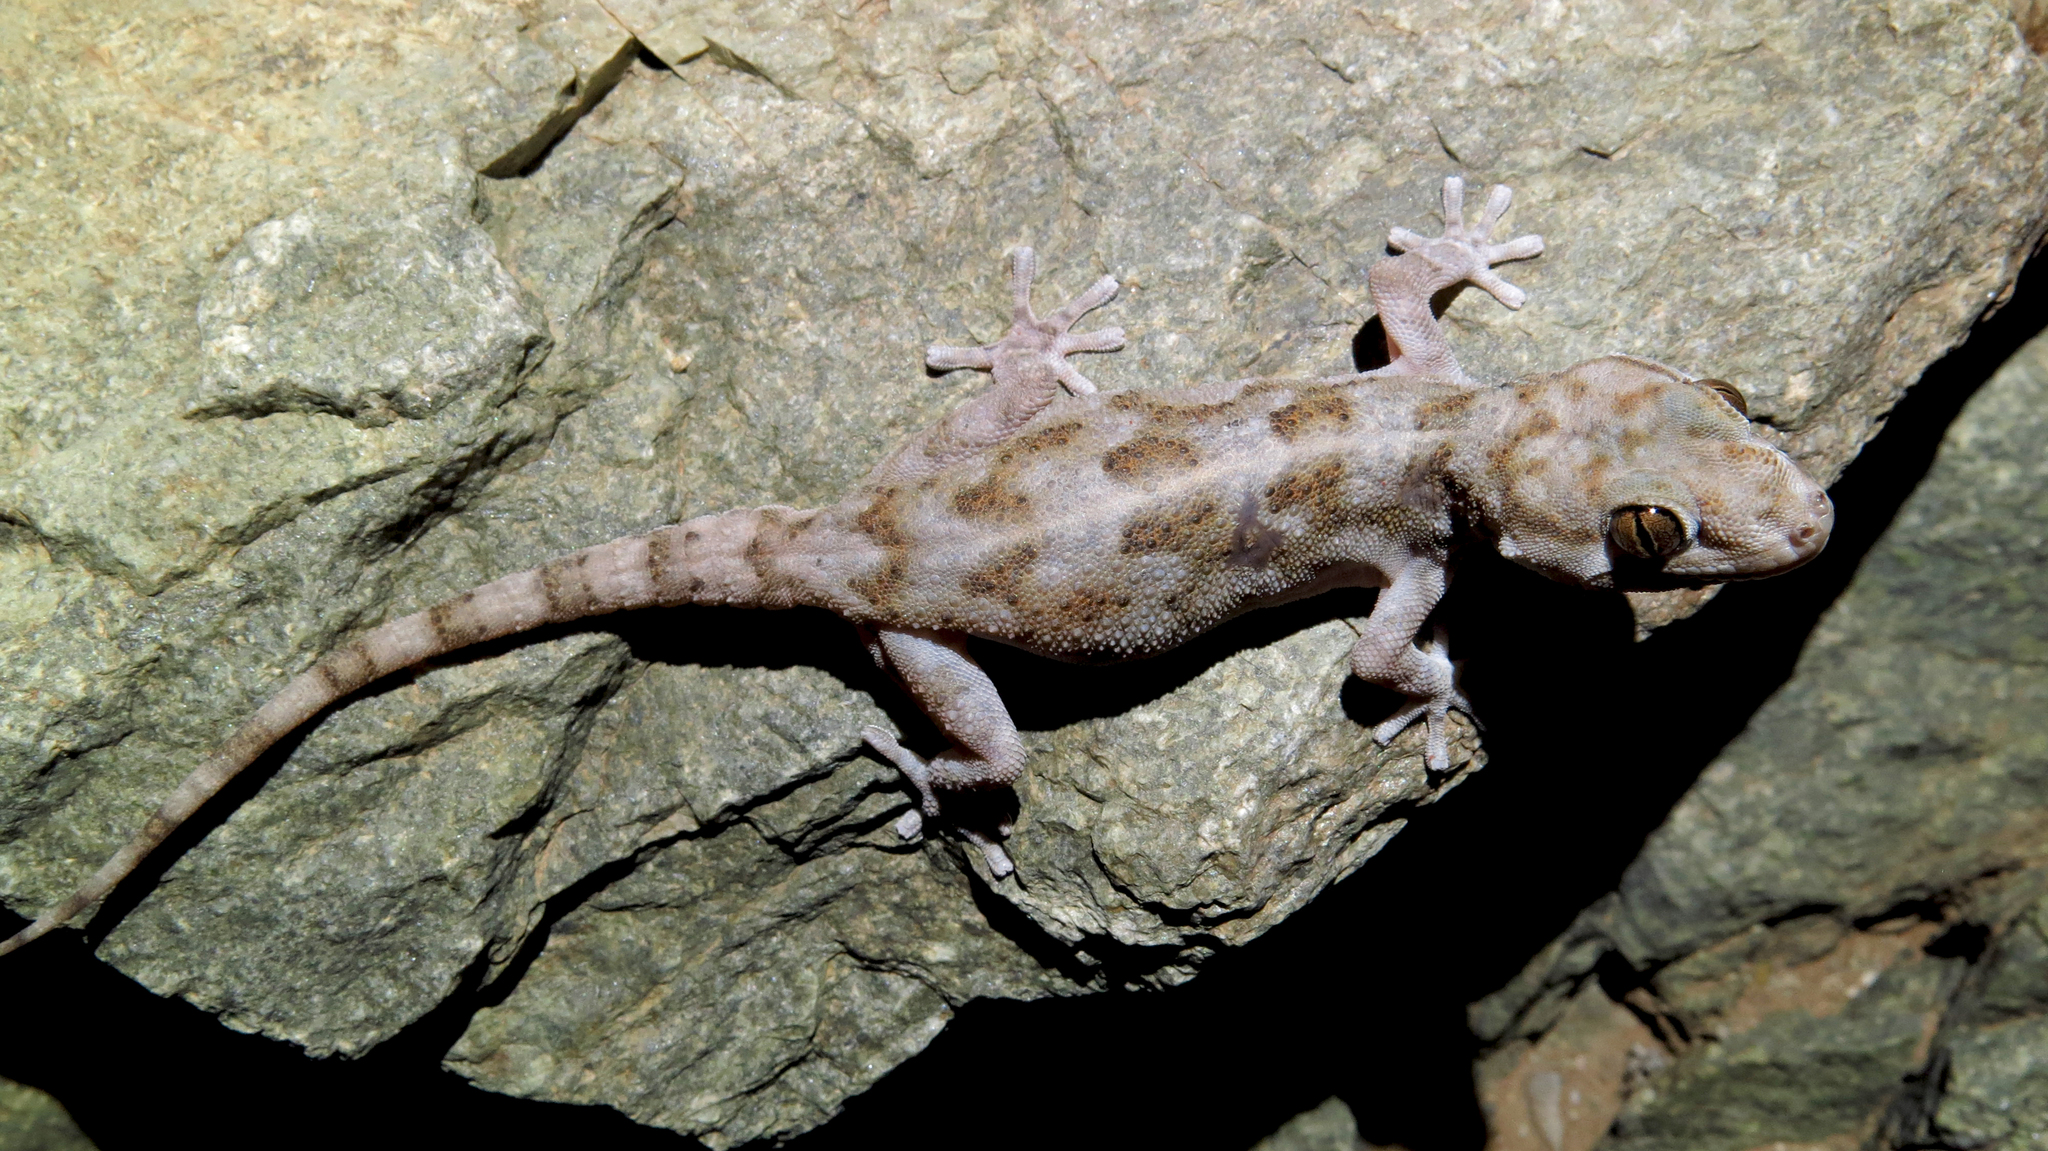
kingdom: Animalia
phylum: Chordata
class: Squamata
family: Gekkonidae
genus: Pachydactylus
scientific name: Pachydactylus haackei
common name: Haacke's gecko
